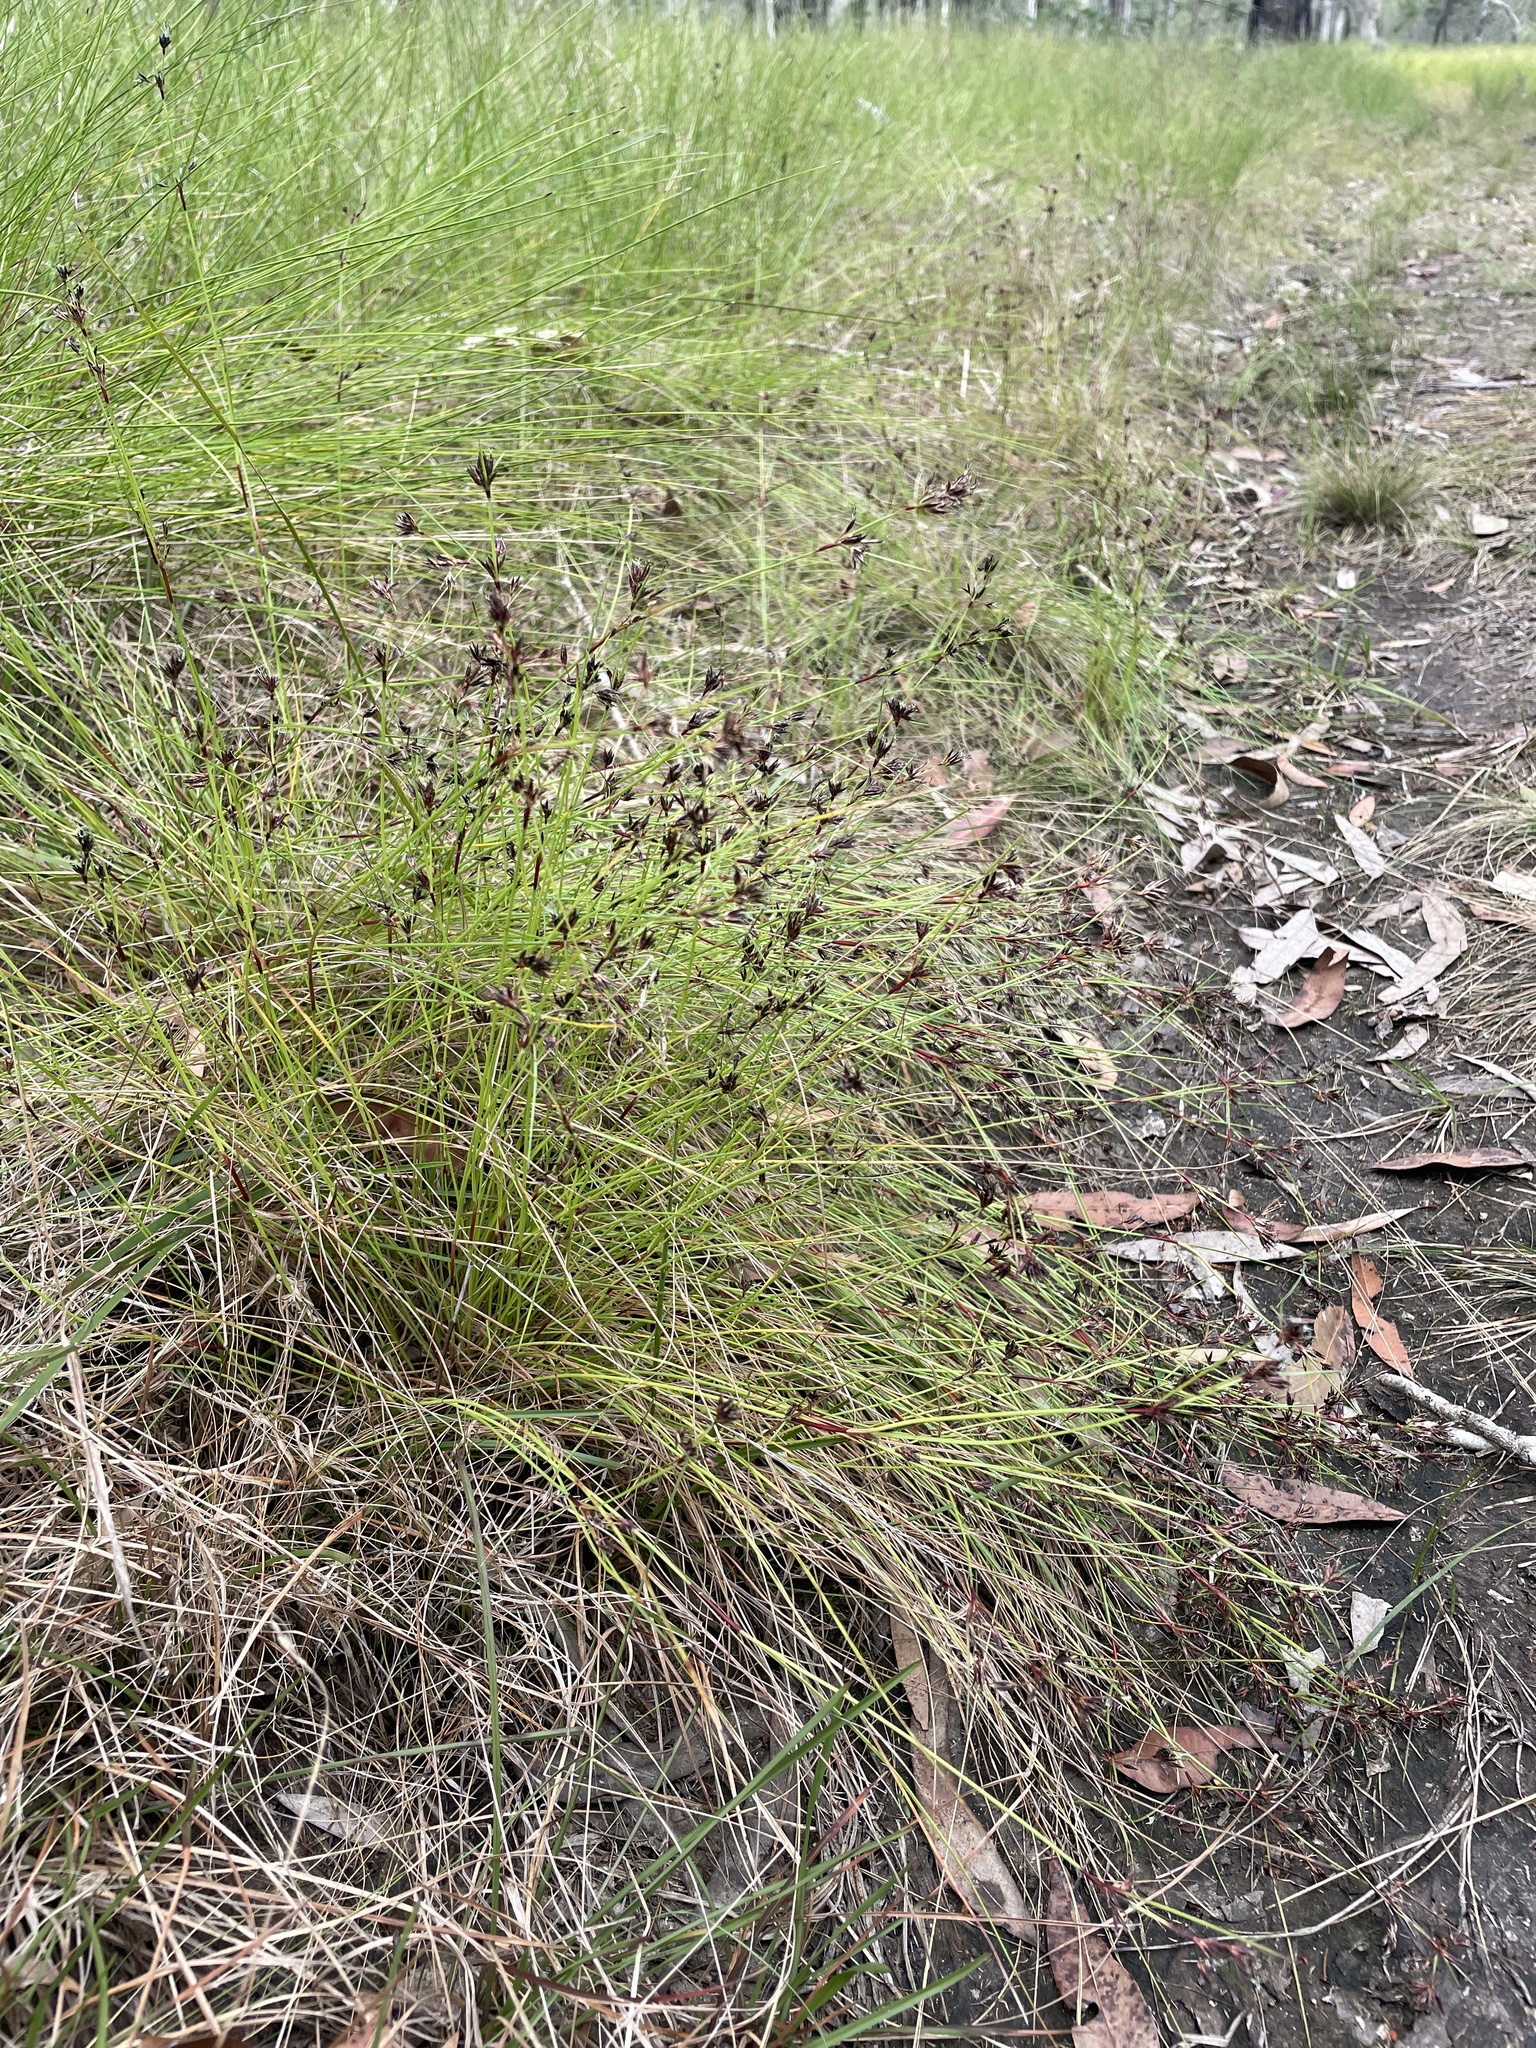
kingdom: Plantae
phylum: Tracheophyta
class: Liliopsida
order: Poales
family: Cyperaceae
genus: Schoenus
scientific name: Schoenus apogon
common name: Smooth bogrush
